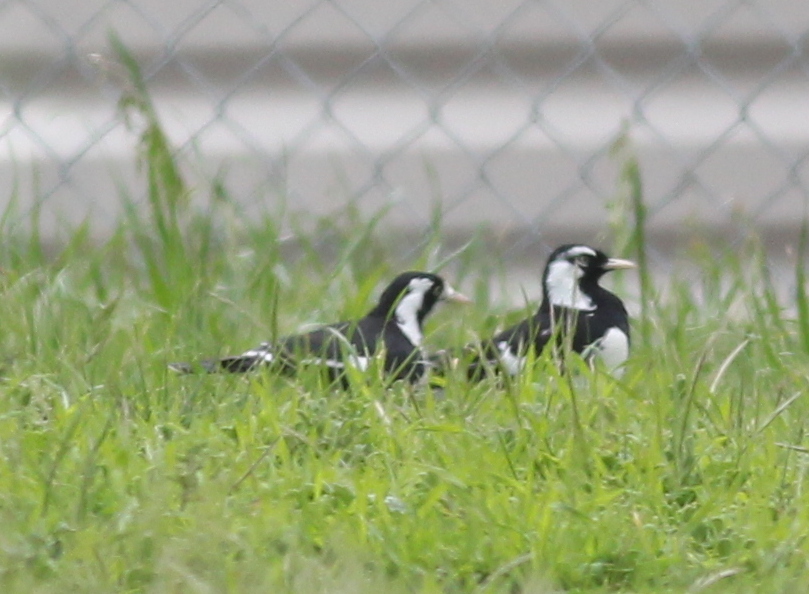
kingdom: Animalia
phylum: Chordata
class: Aves
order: Passeriformes
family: Monarchidae
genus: Grallina
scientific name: Grallina cyanoleuca
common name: Magpie-lark
